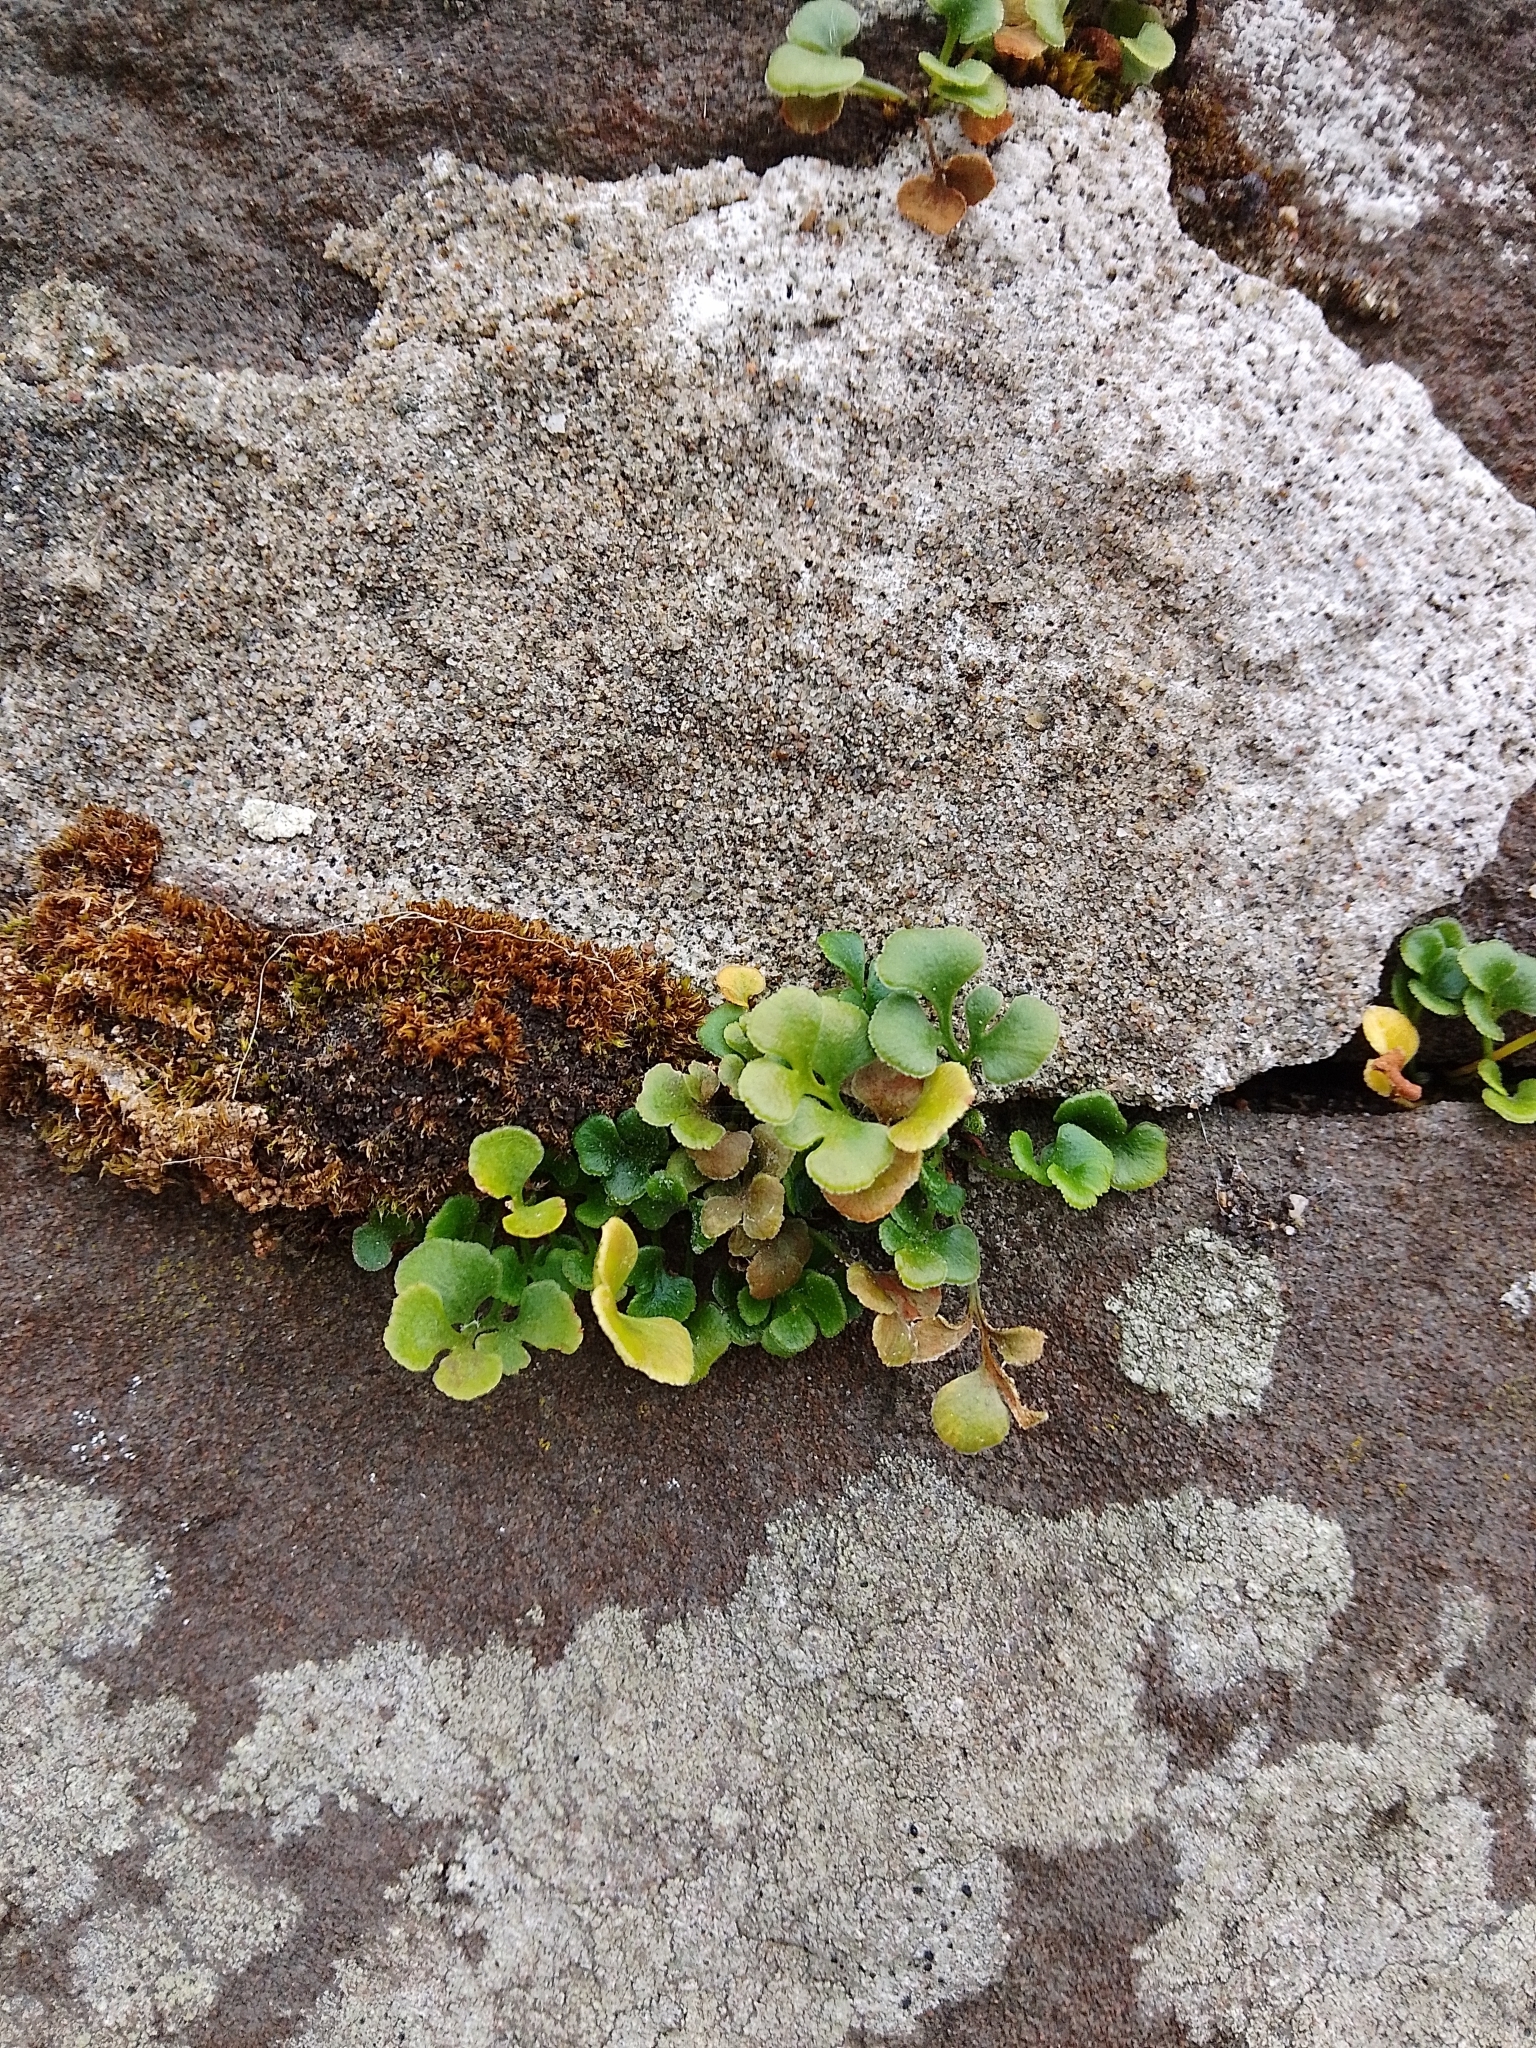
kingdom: Plantae
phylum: Tracheophyta
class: Polypodiopsida
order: Polypodiales
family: Aspleniaceae
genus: Asplenium
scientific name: Asplenium ruta-muraria
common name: Wall-rue
